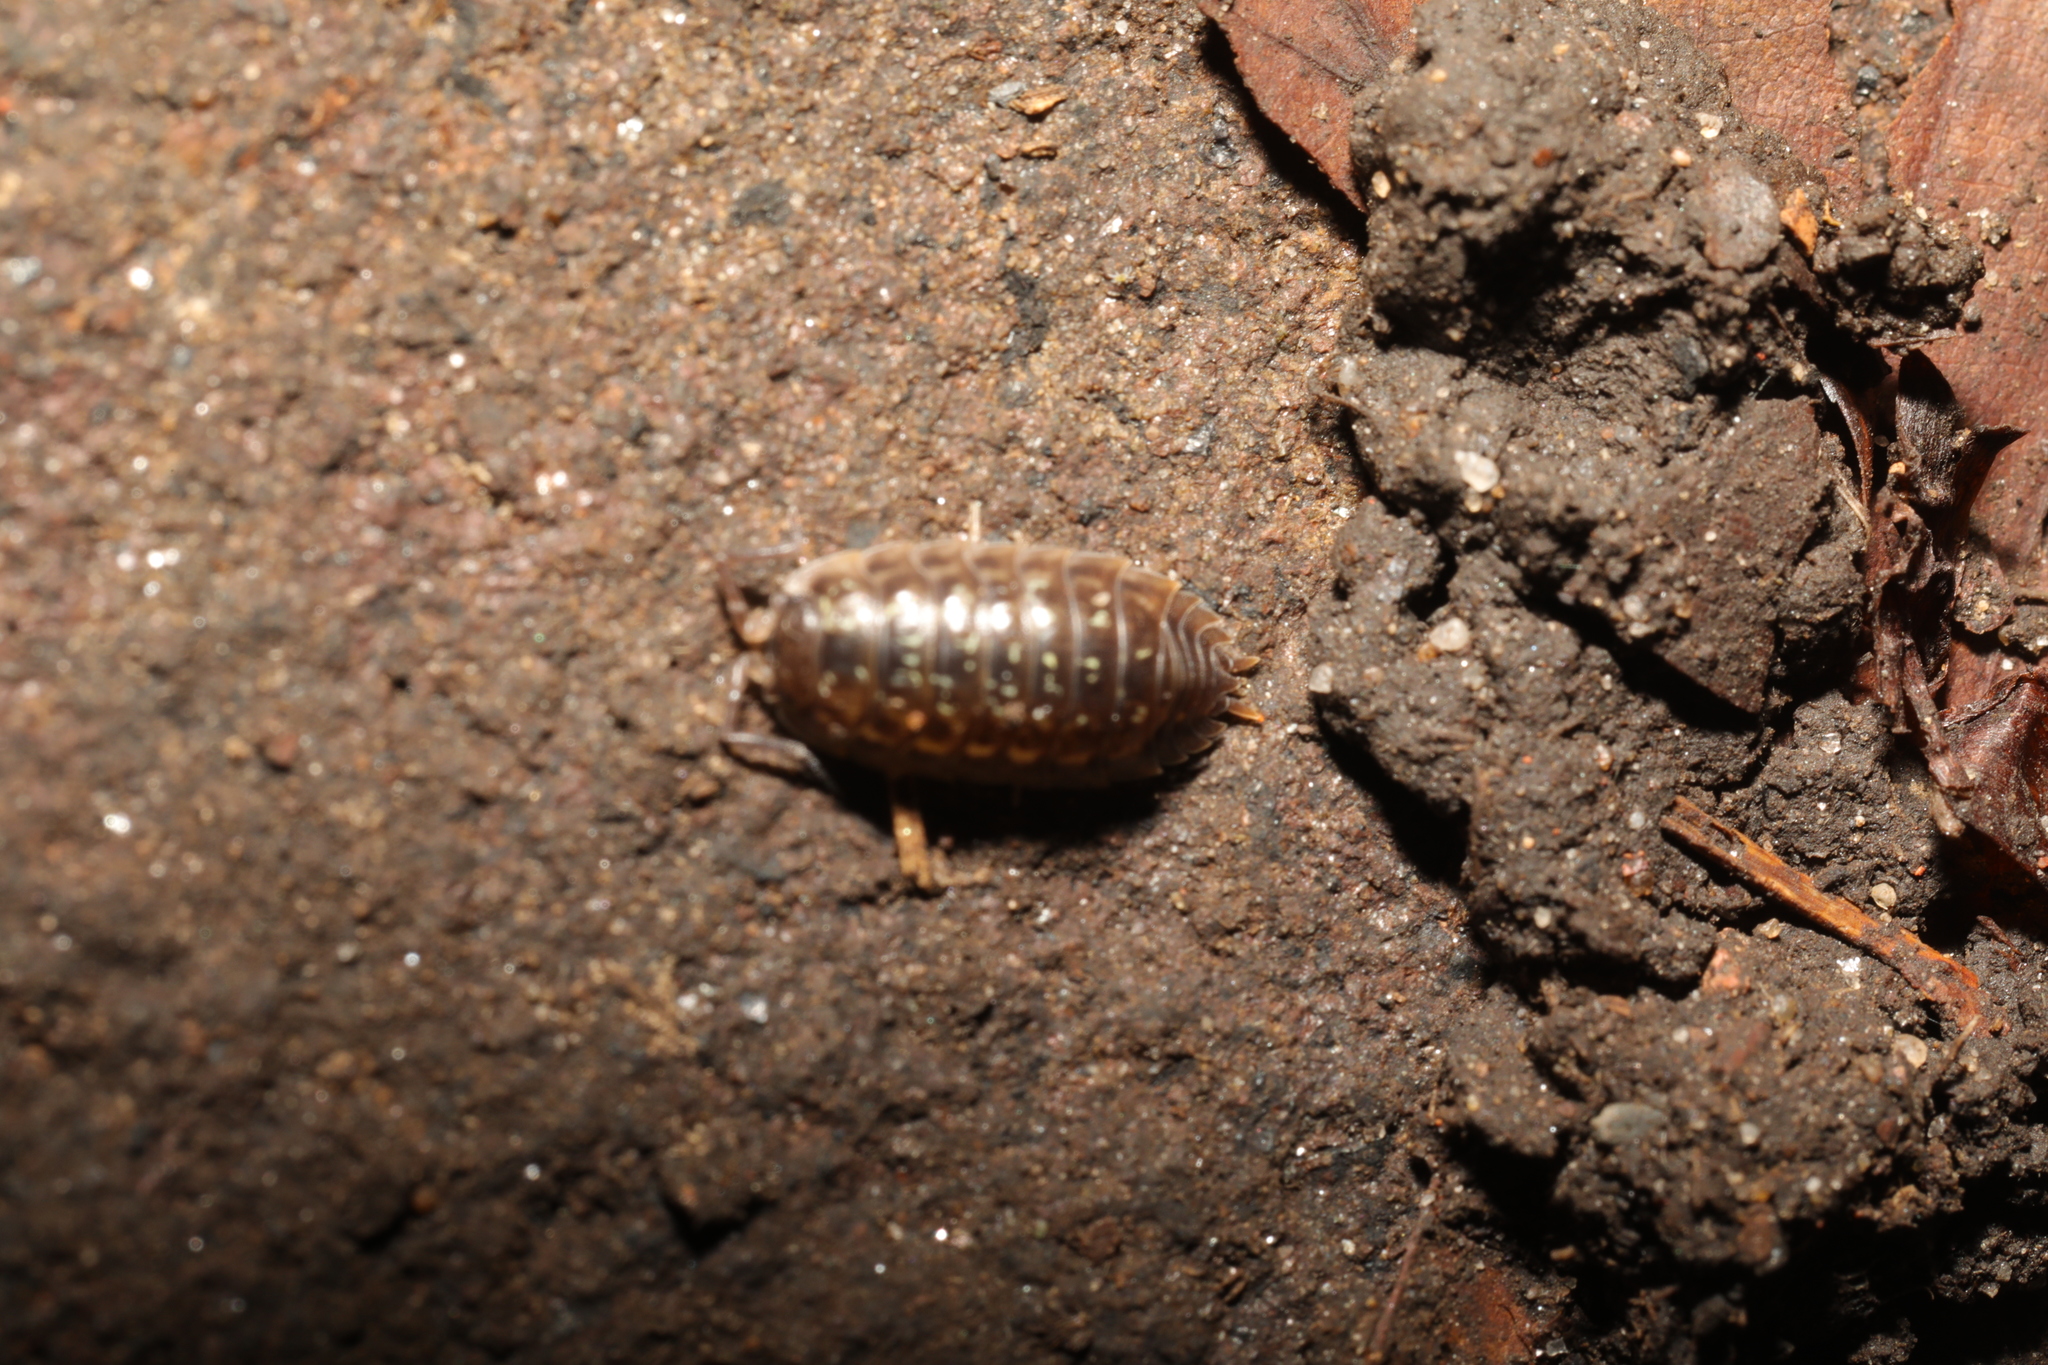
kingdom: Animalia
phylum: Arthropoda
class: Malacostraca
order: Isopoda
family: Oniscidae
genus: Oniscus
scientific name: Oniscus asellus
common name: Common shiny woodlouse
